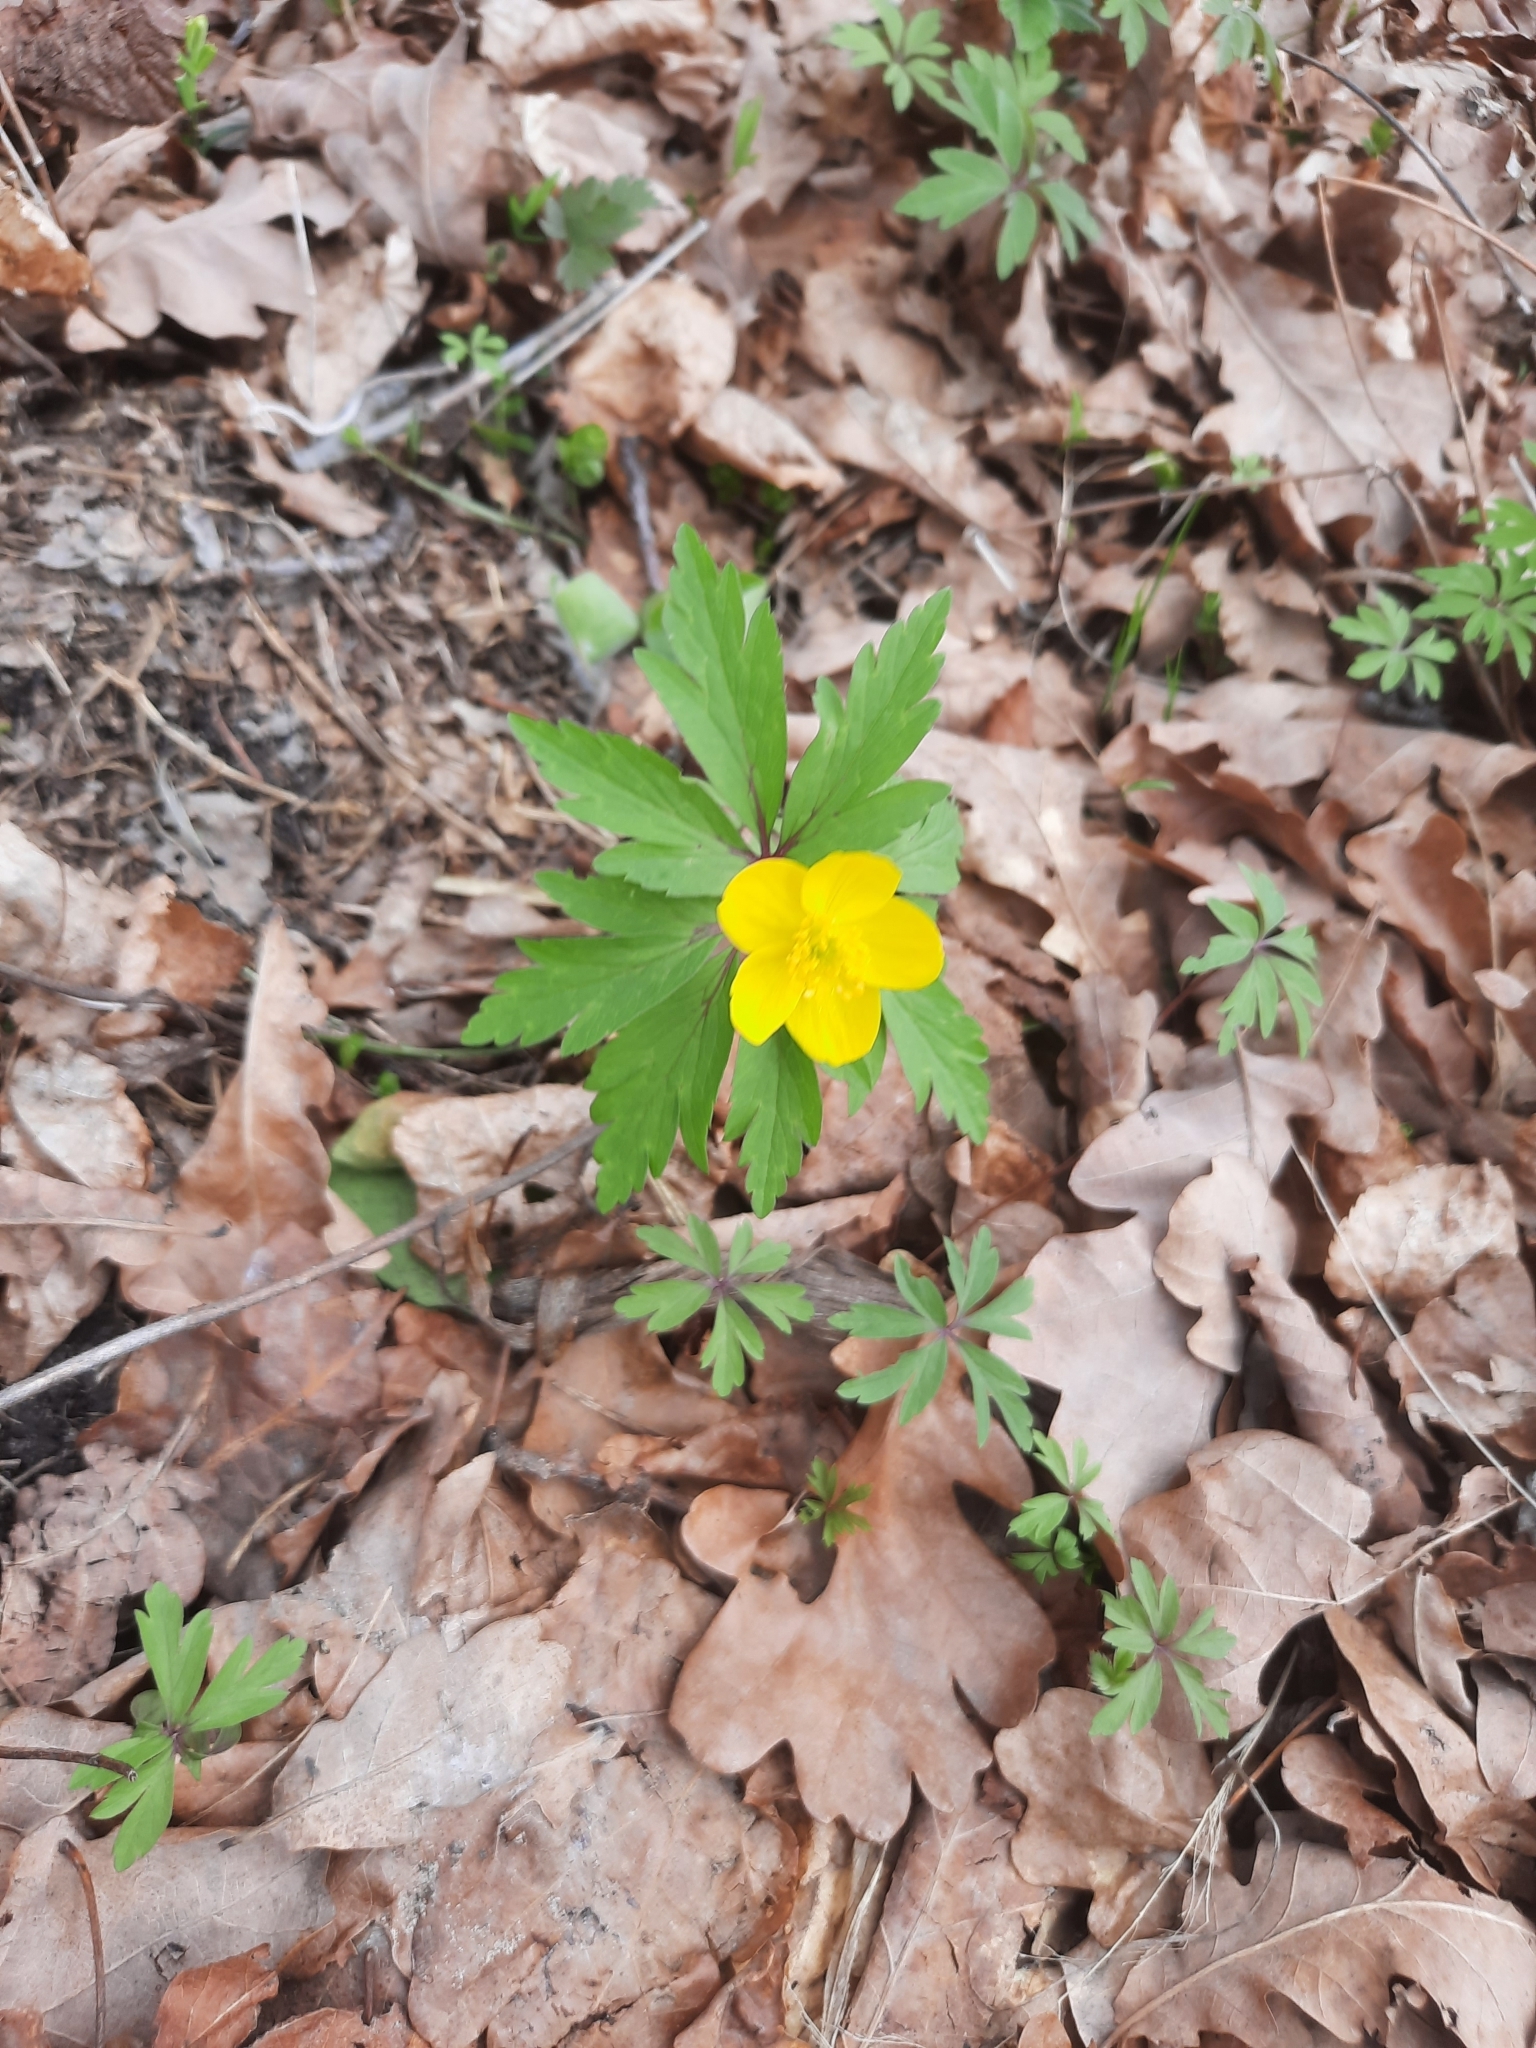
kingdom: Plantae
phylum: Tracheophyta
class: Magnoliopsida
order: Ranunculales
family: Ranunculaceae
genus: Anemone
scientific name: Anemone ranunculoides
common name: Yellow anemone
